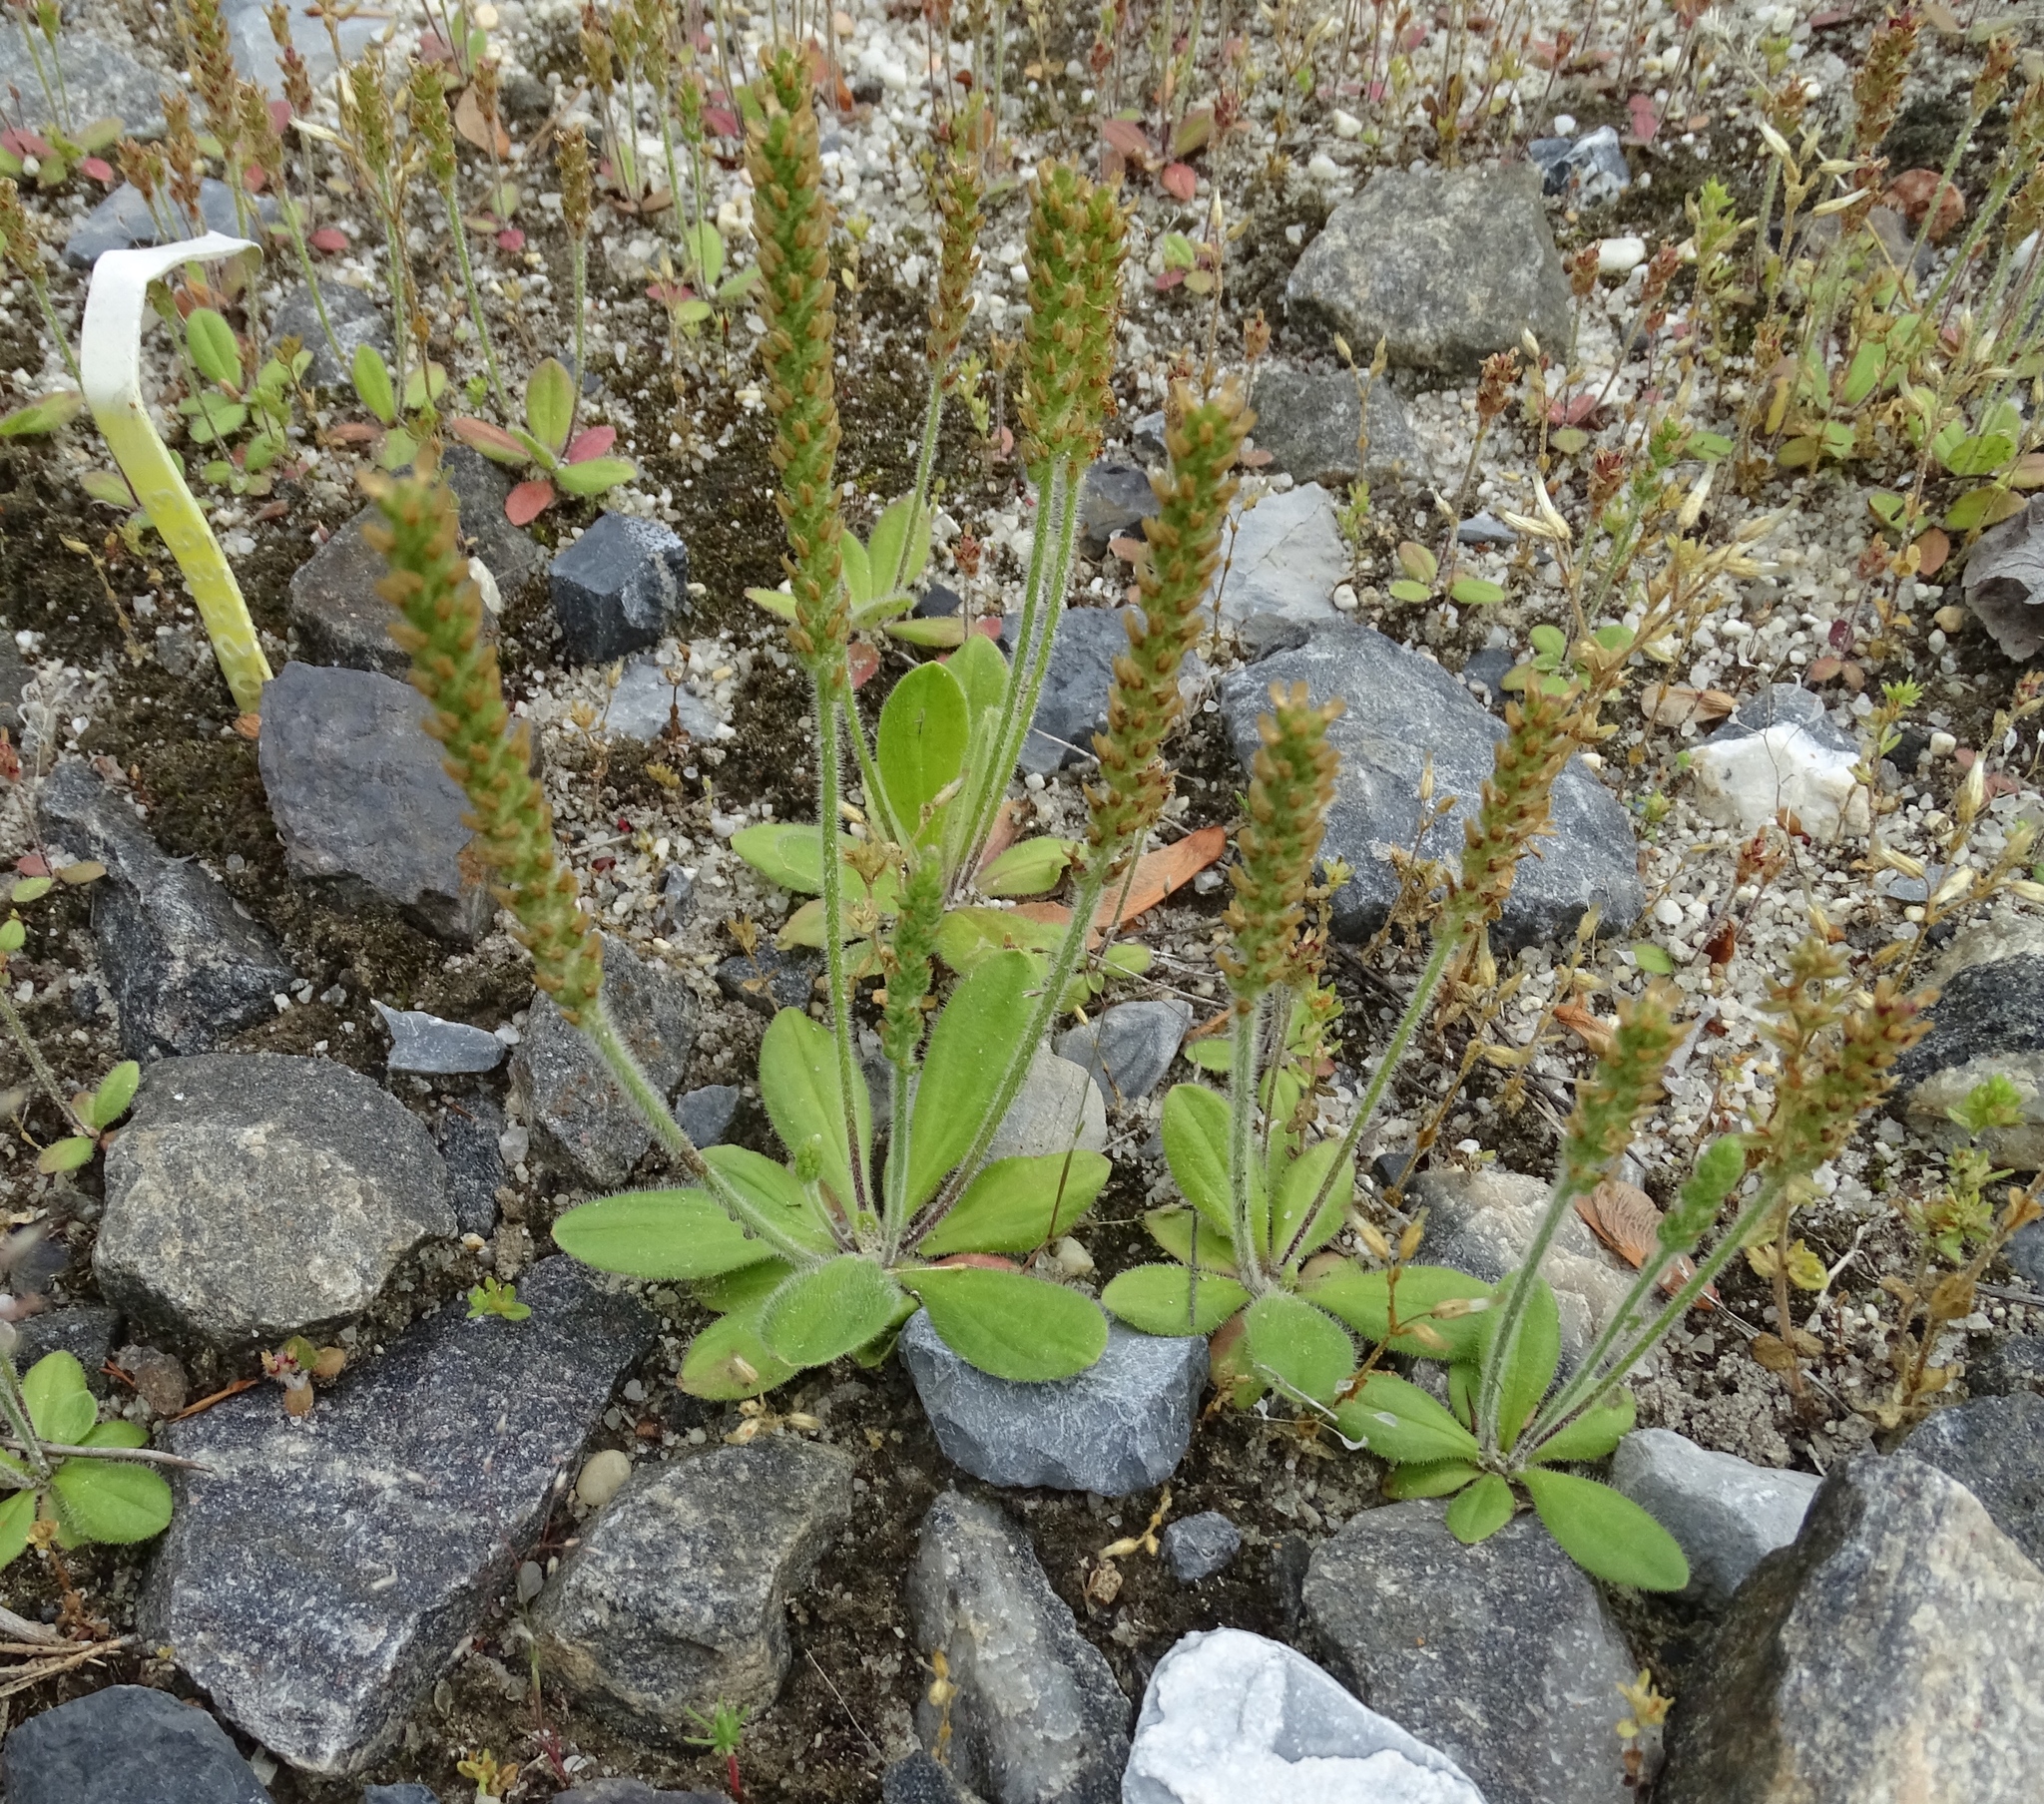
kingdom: Plantae
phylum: Tracheophyta
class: Magnoliopsida
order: Lamiales
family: Plantaginaceae
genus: Plantago
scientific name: Plantago virginica
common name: Hoary plantain
